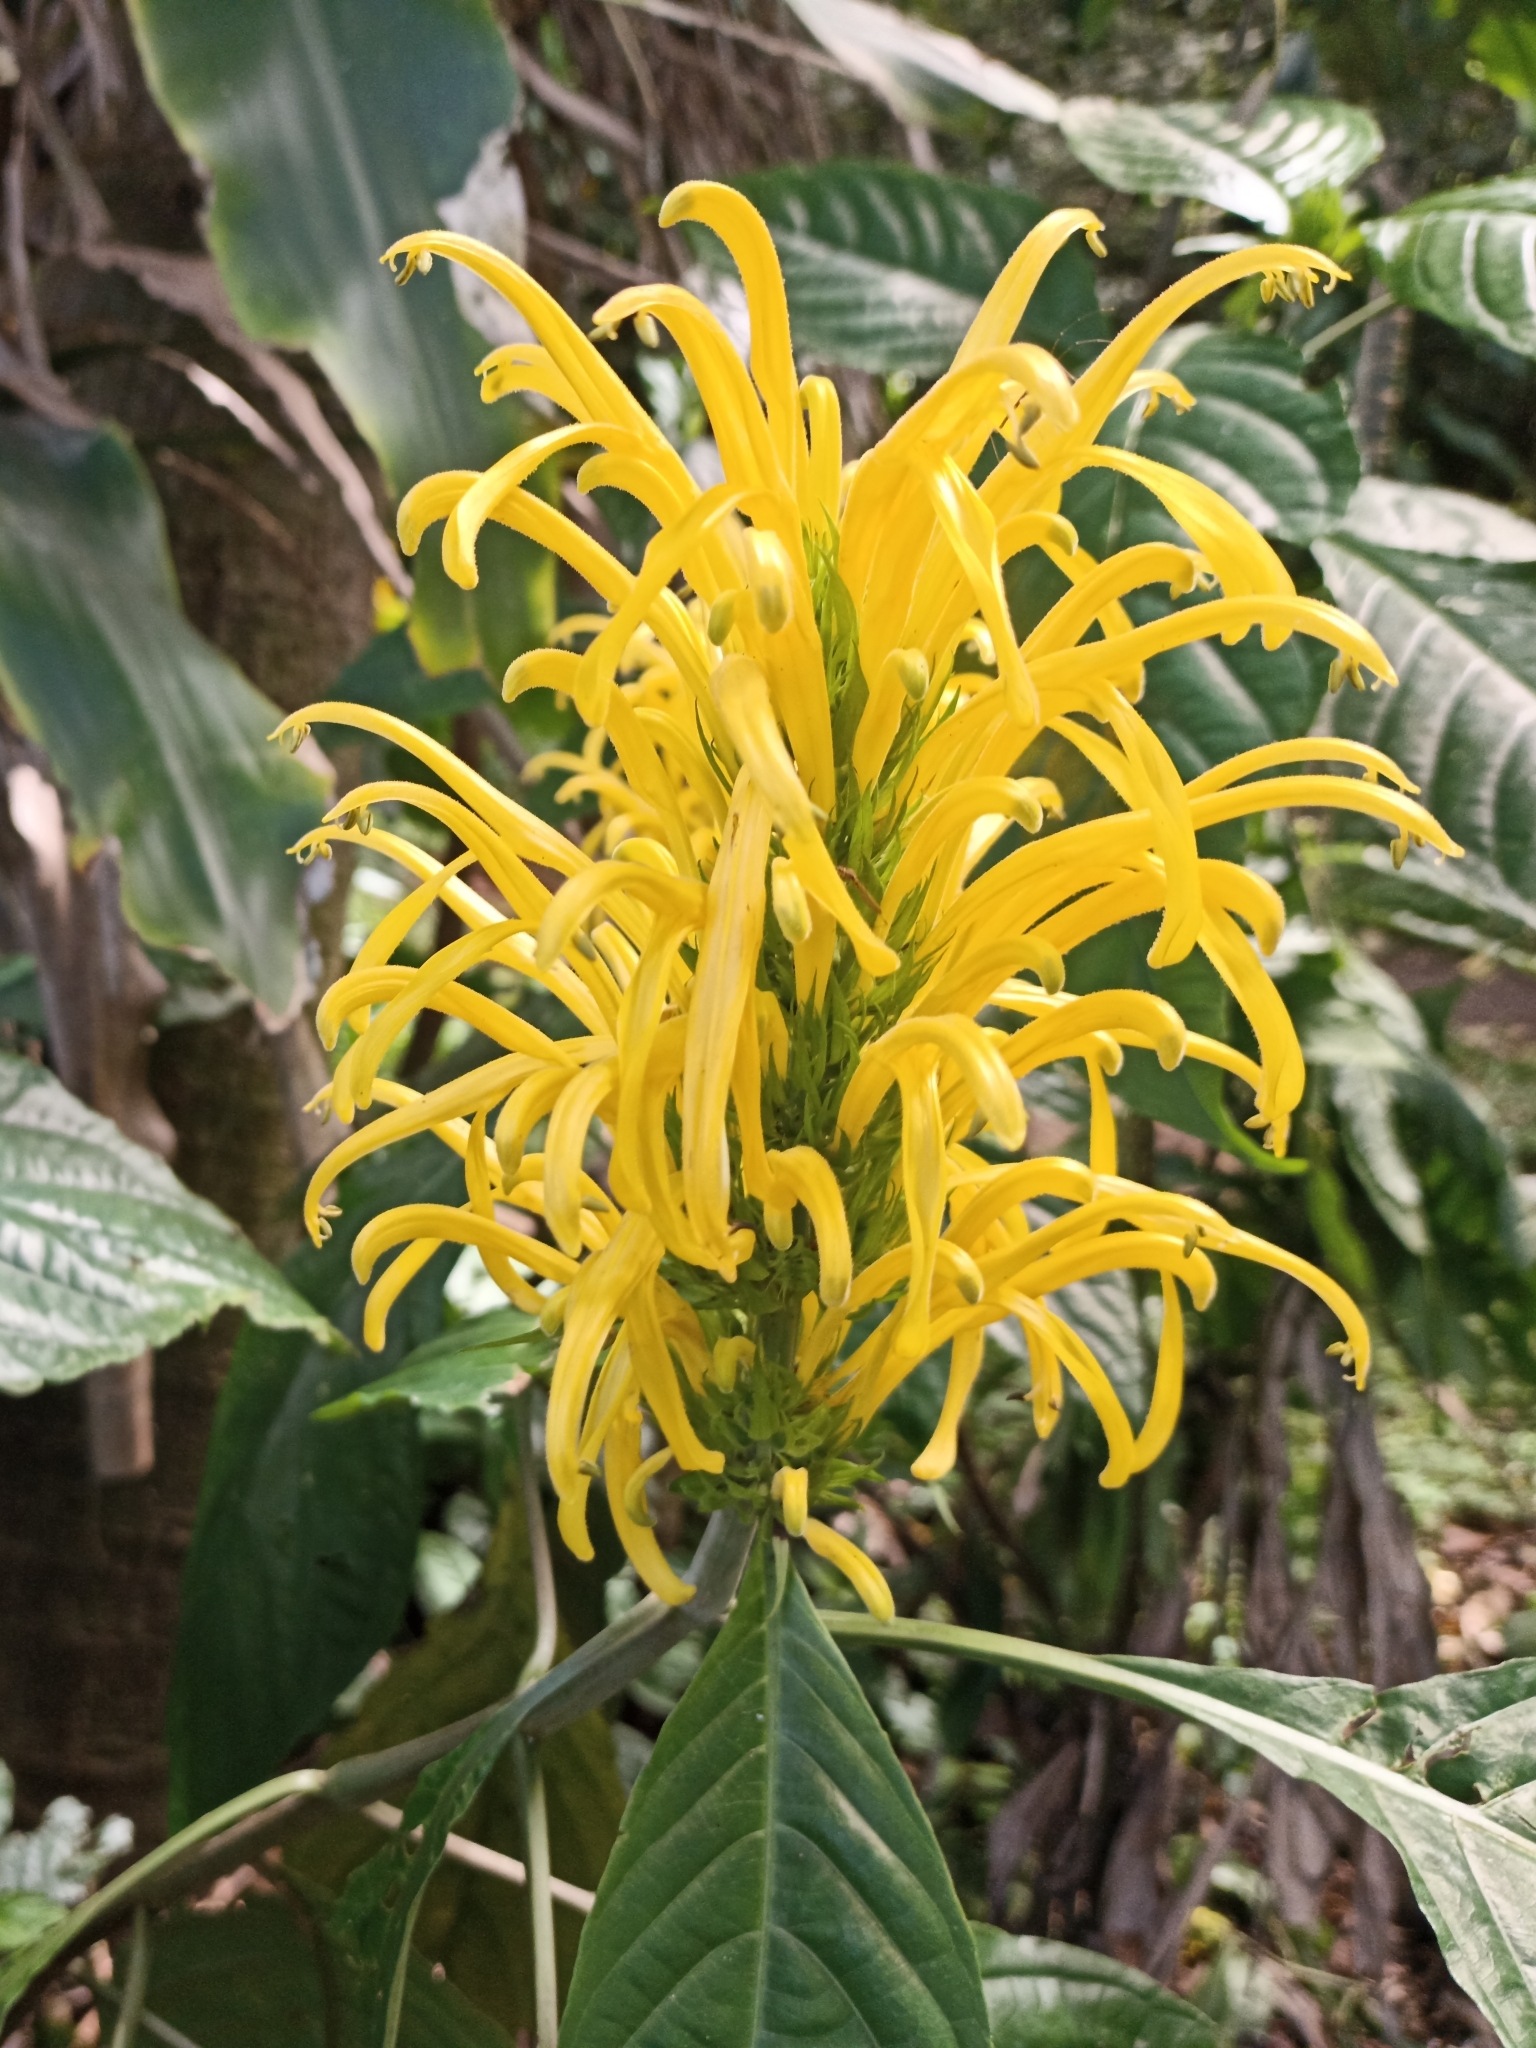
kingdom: Plantae
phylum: Tracheophyta
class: Magnoliopsida
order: Lamiales
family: Acanthaceae
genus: Justicia
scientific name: Justicia aurea
